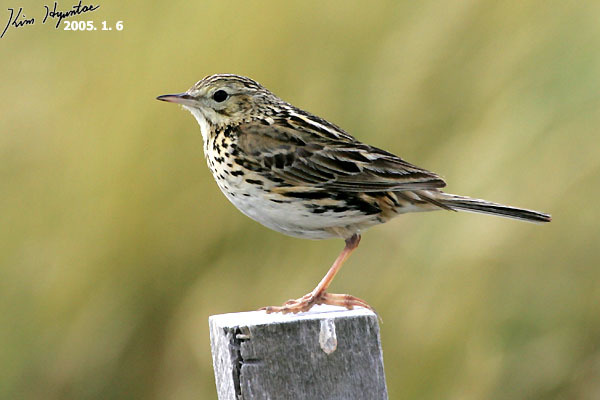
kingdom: Animalia
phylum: Chordata
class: Aves
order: Passeriformes
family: Motacillidae
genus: Anthus
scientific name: Anthus correndera
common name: Correndera pipit
